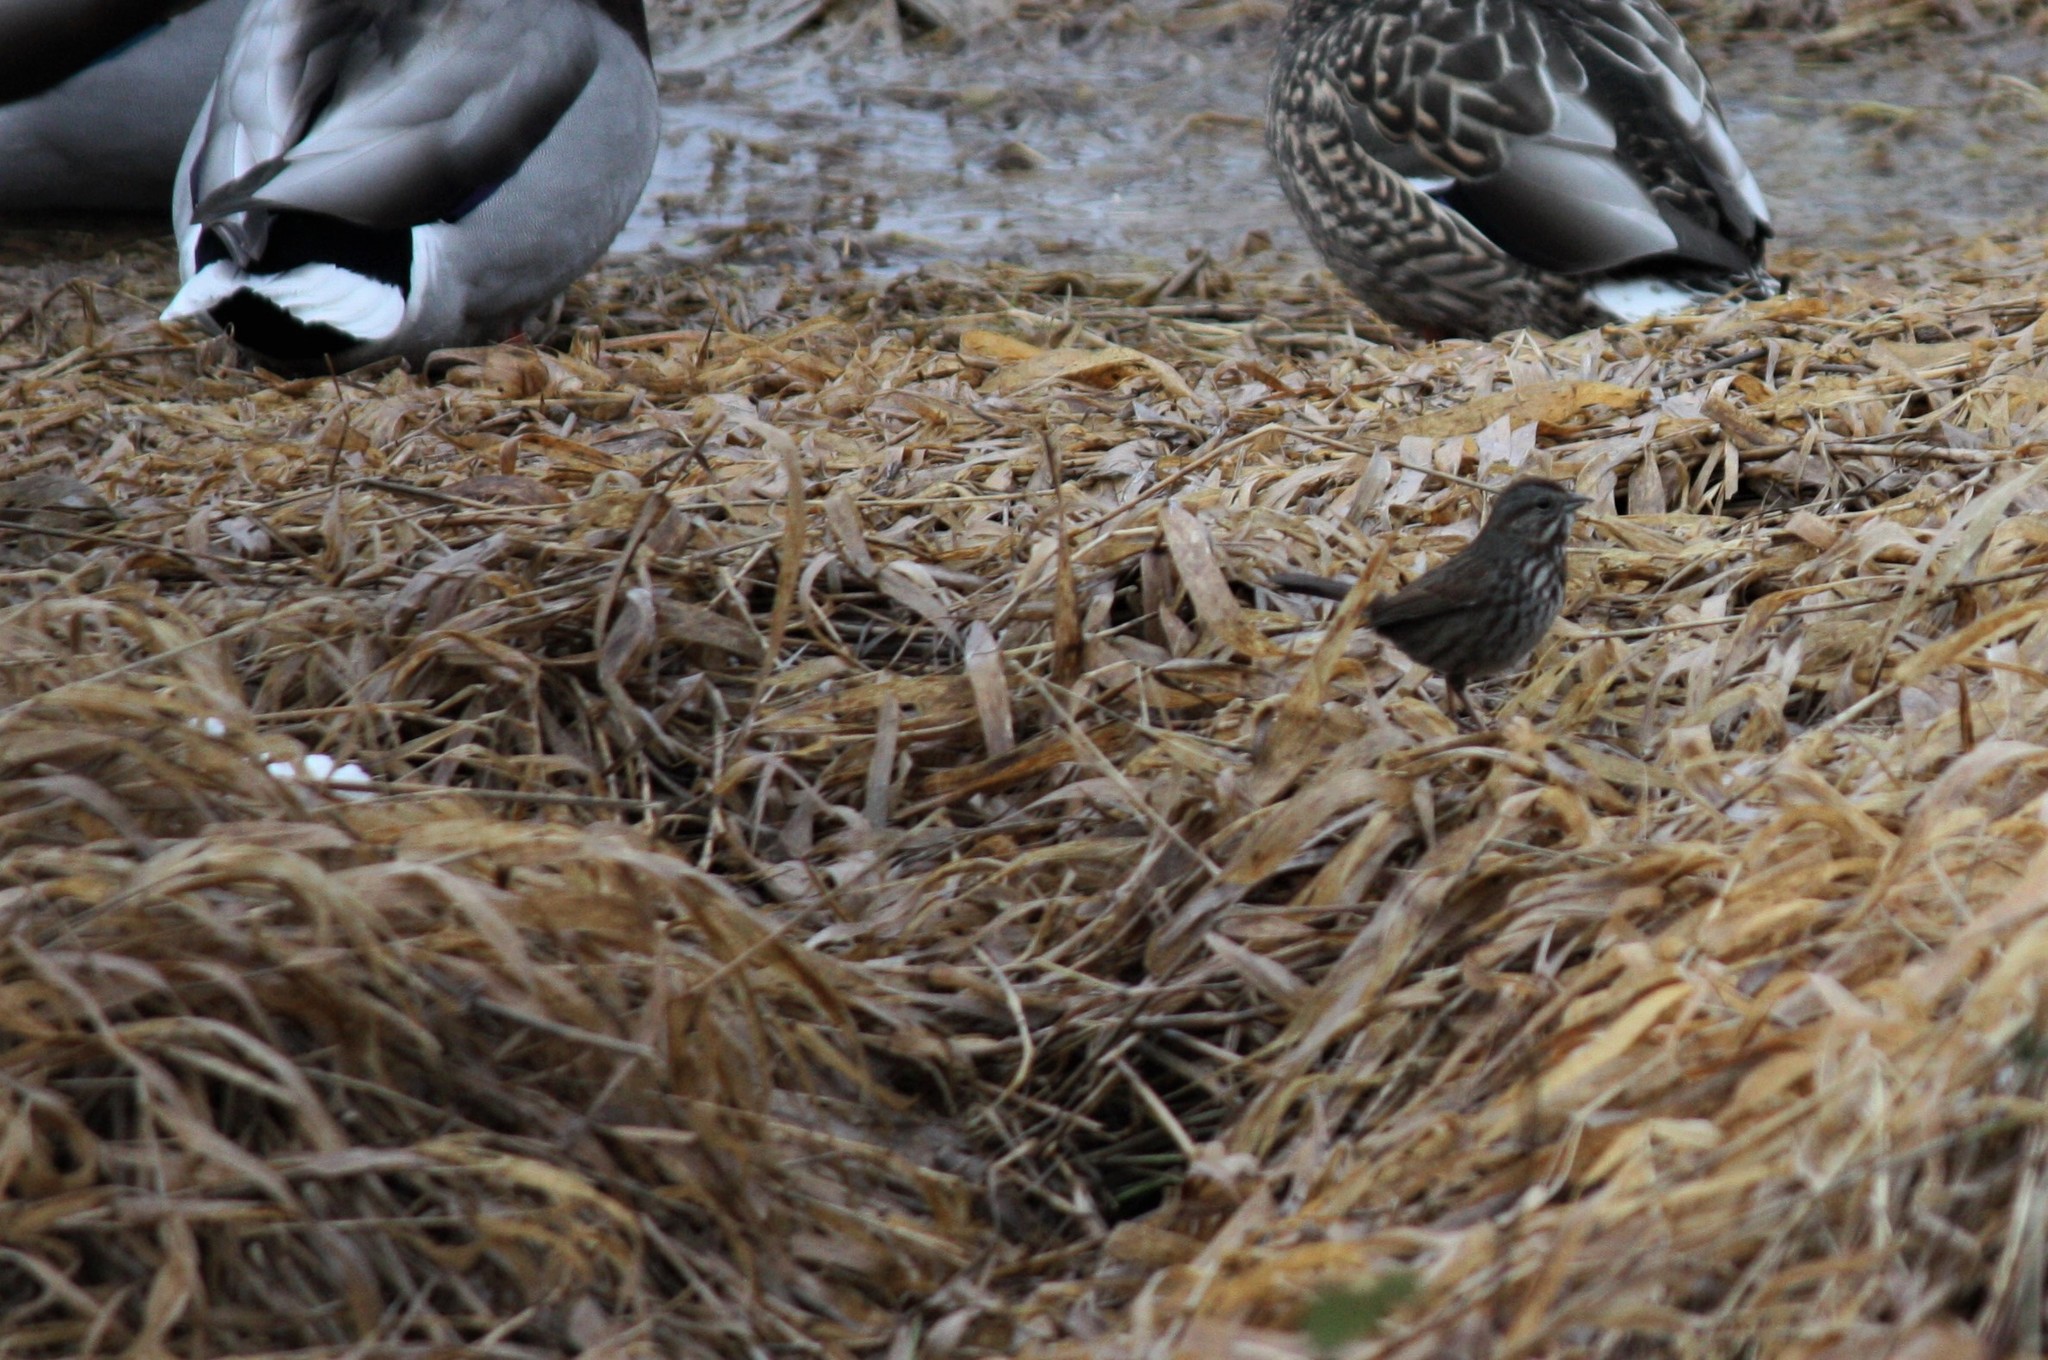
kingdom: Animalia
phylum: Chordata
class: Aves
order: Passeriformes
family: Passerellidae
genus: Melospiza
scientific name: Melospiza melodia
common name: Song sparrow
